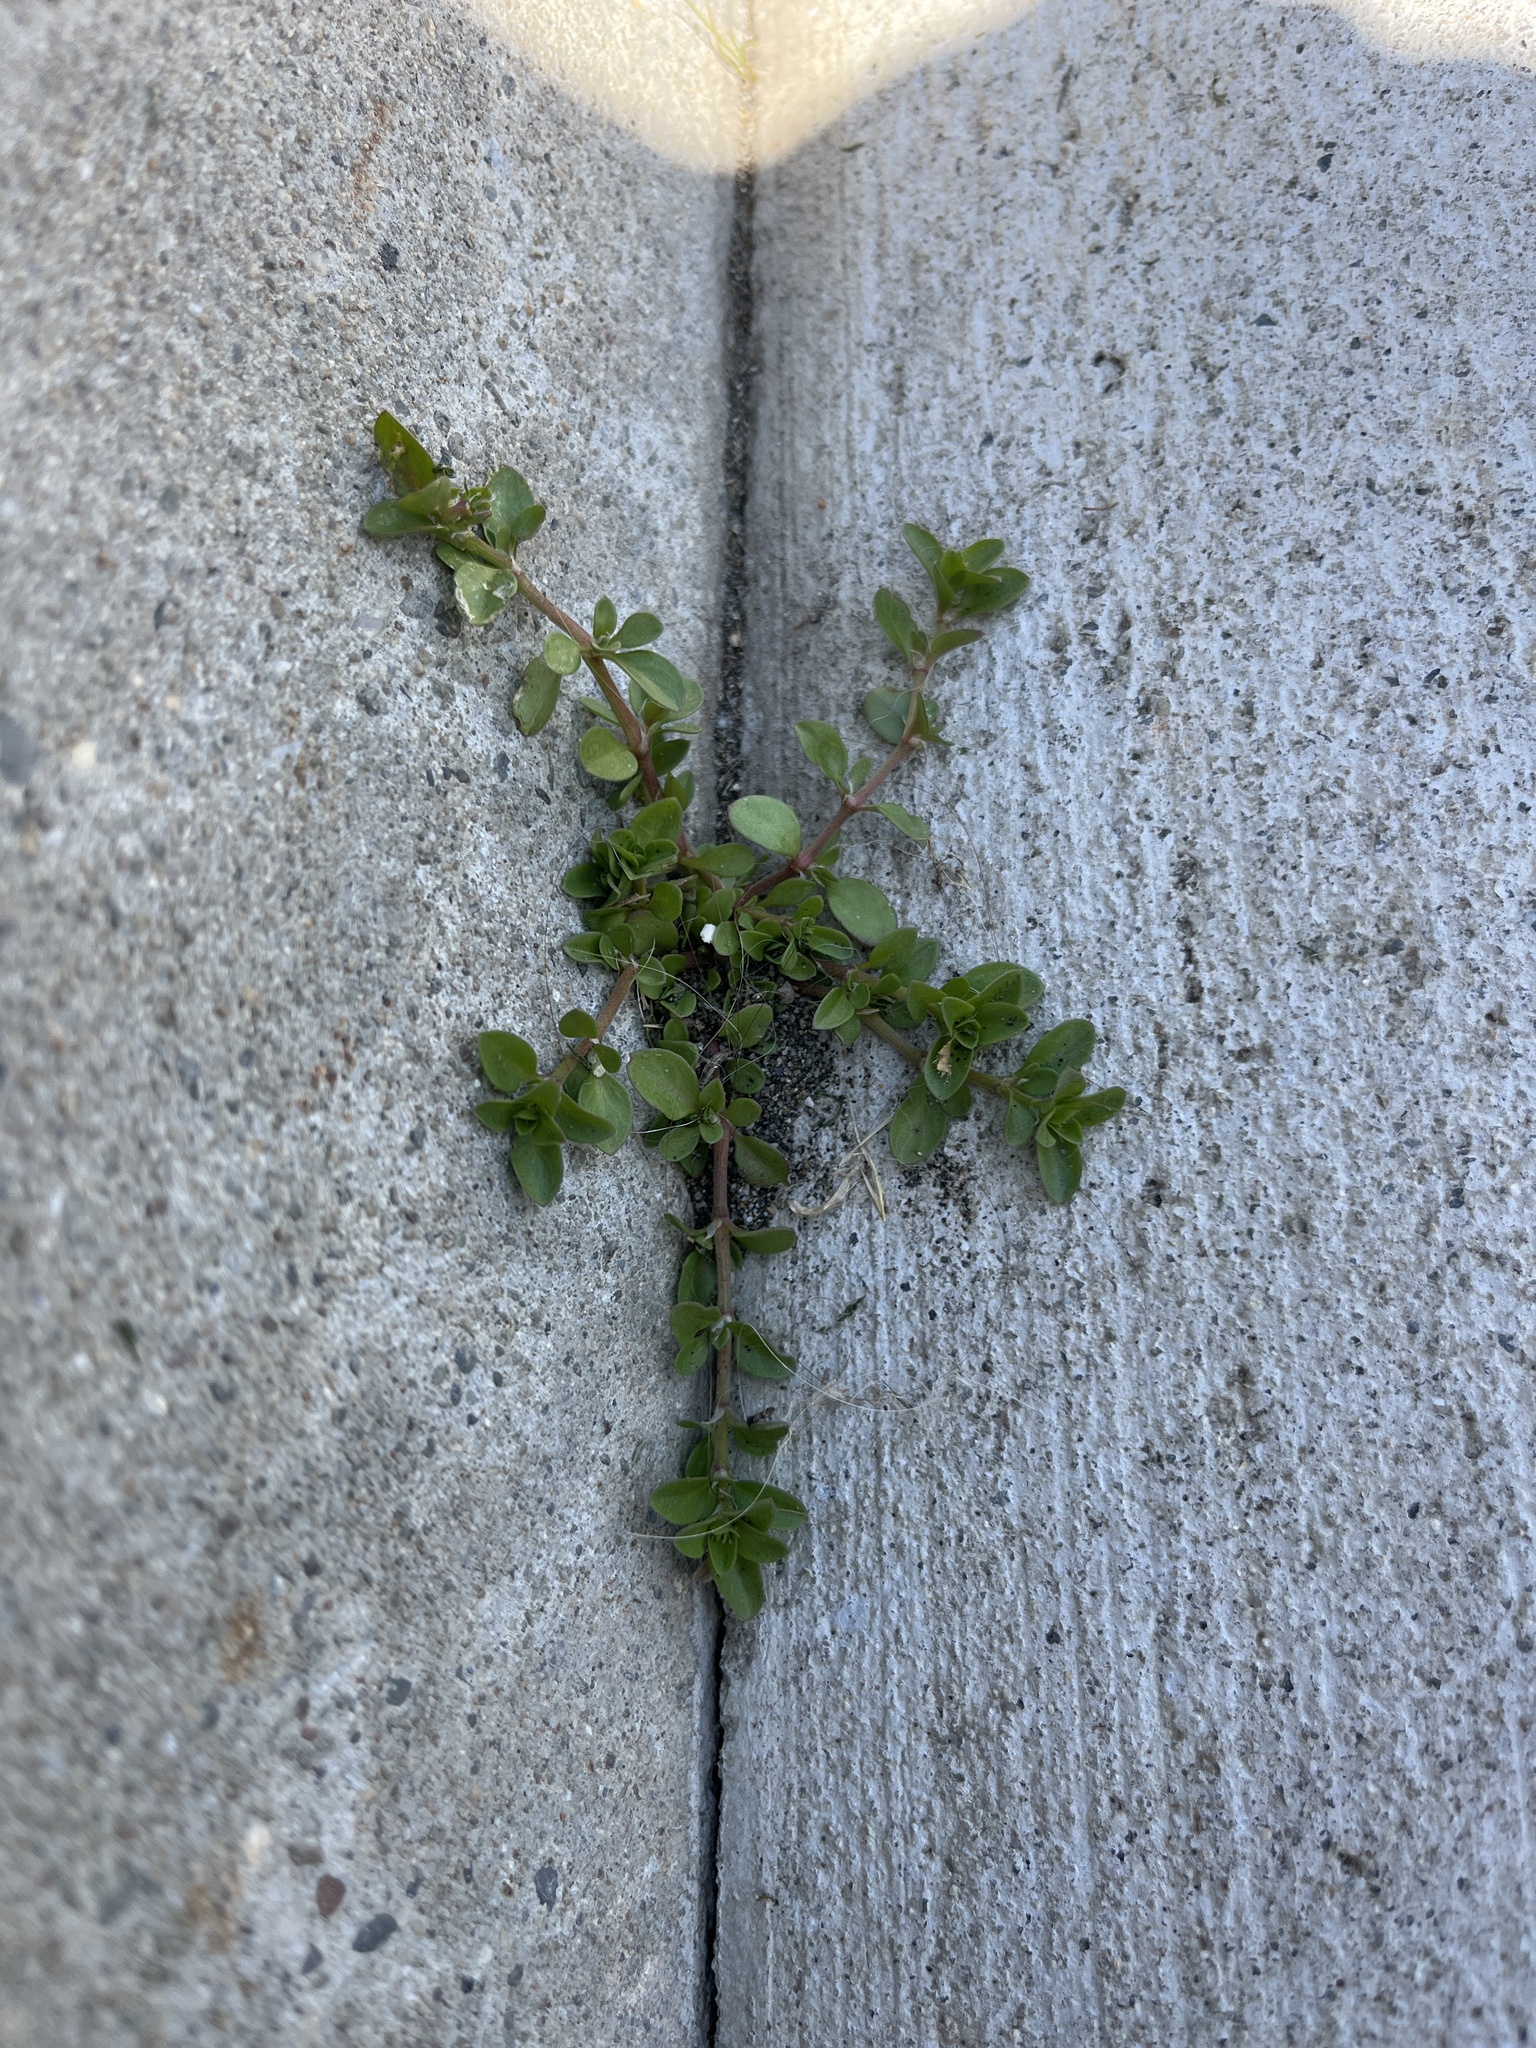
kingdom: Plantae
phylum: Tracheophyta
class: Magnoliopsida
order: Malpighiales
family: Euphorbiaceae
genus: Euphorbia
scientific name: Euphorbia serpens
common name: Matted sandmat
